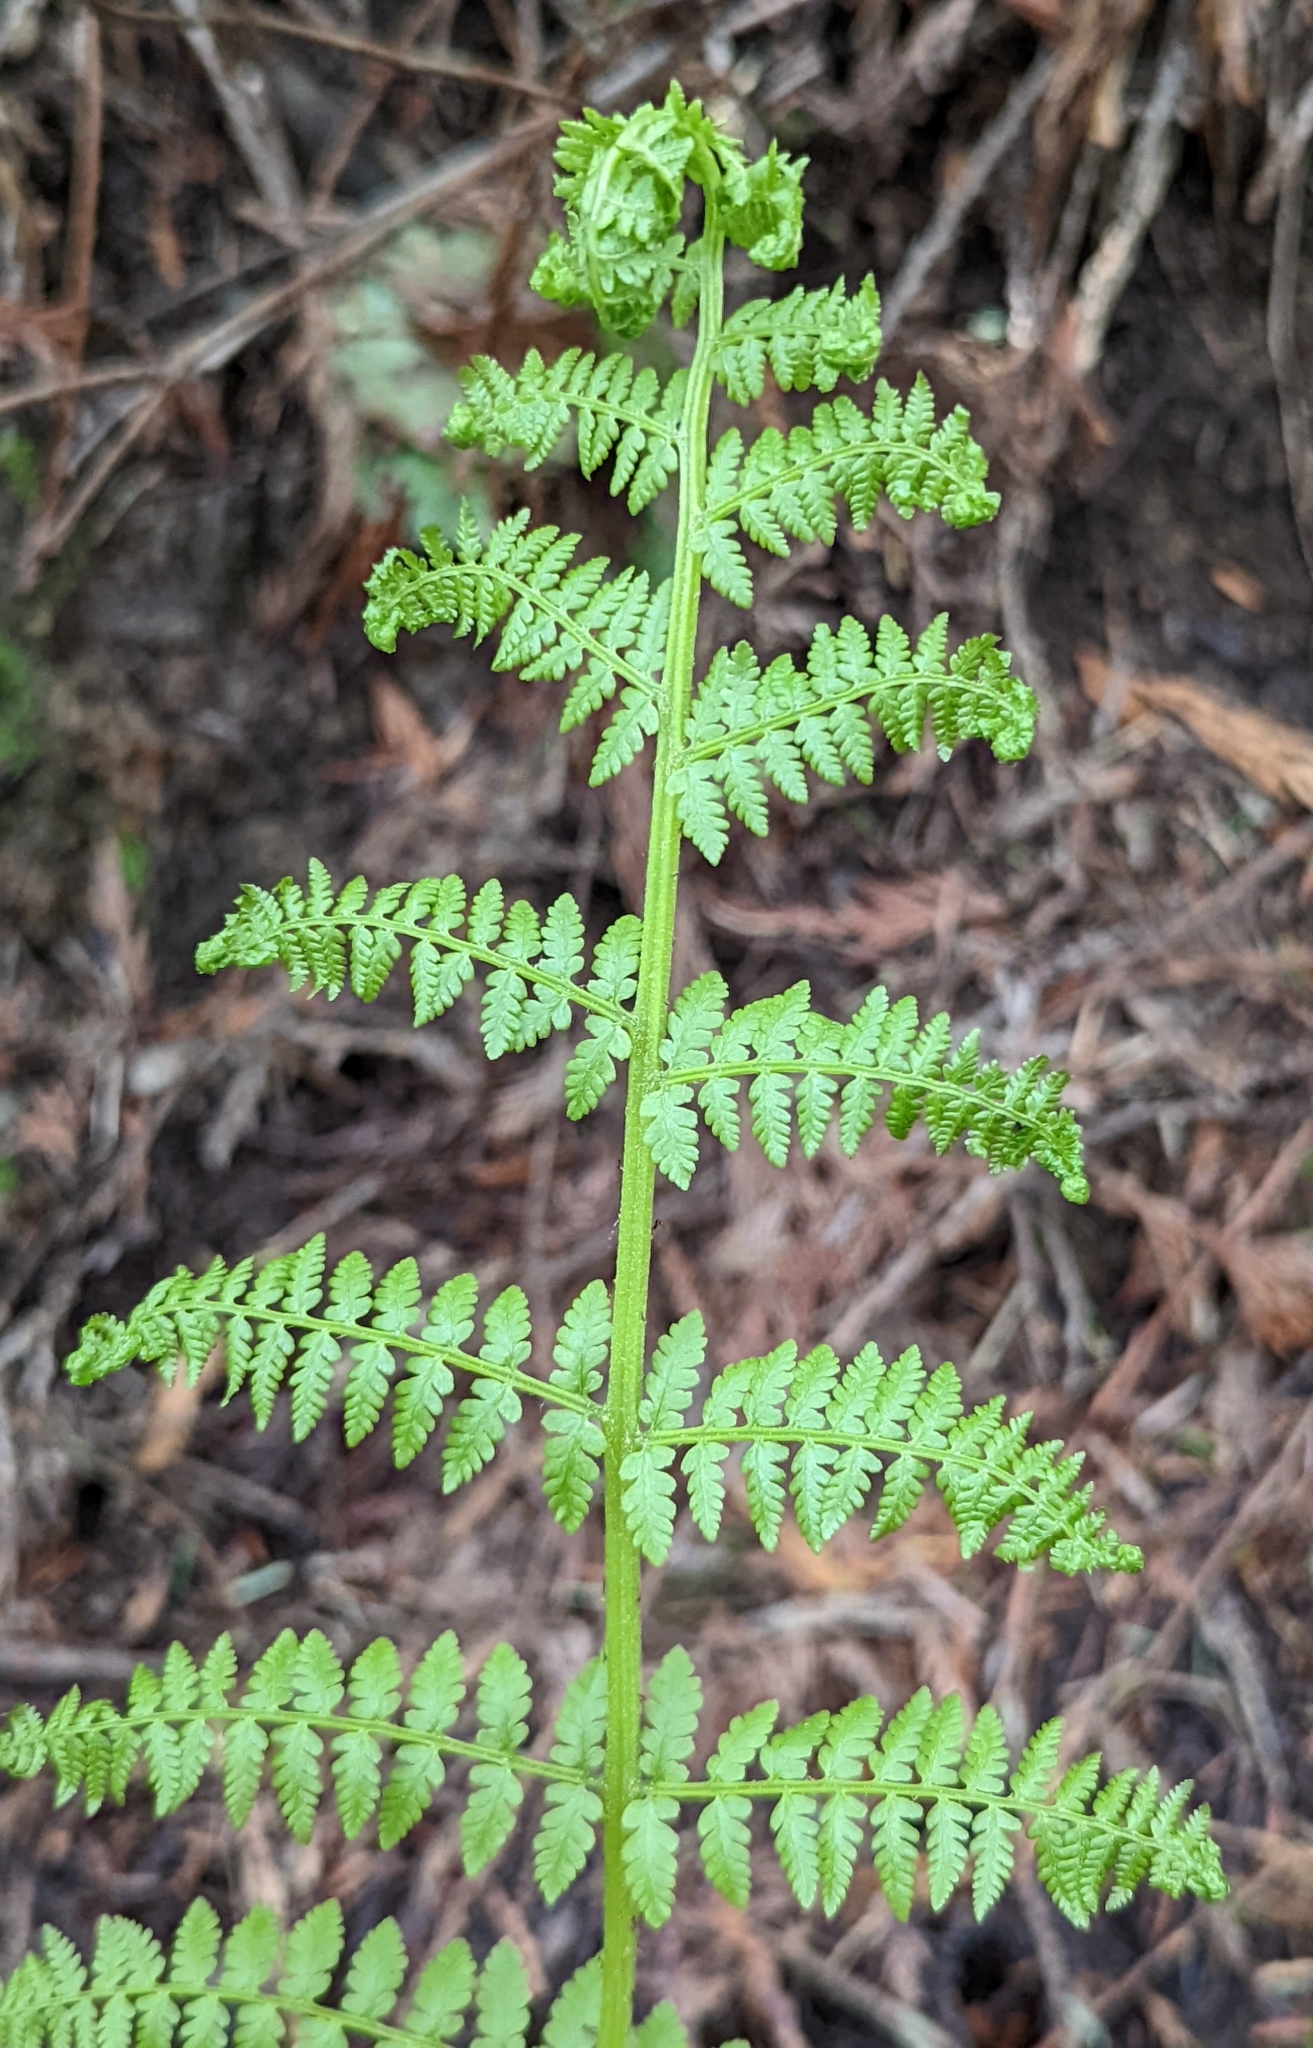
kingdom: Plantae
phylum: Tracheophyta
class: Polypodiopsida
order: Polypodiales
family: Athyriaceae
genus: Athyrium
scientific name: Athyrium filix-femina
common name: Lady fern
